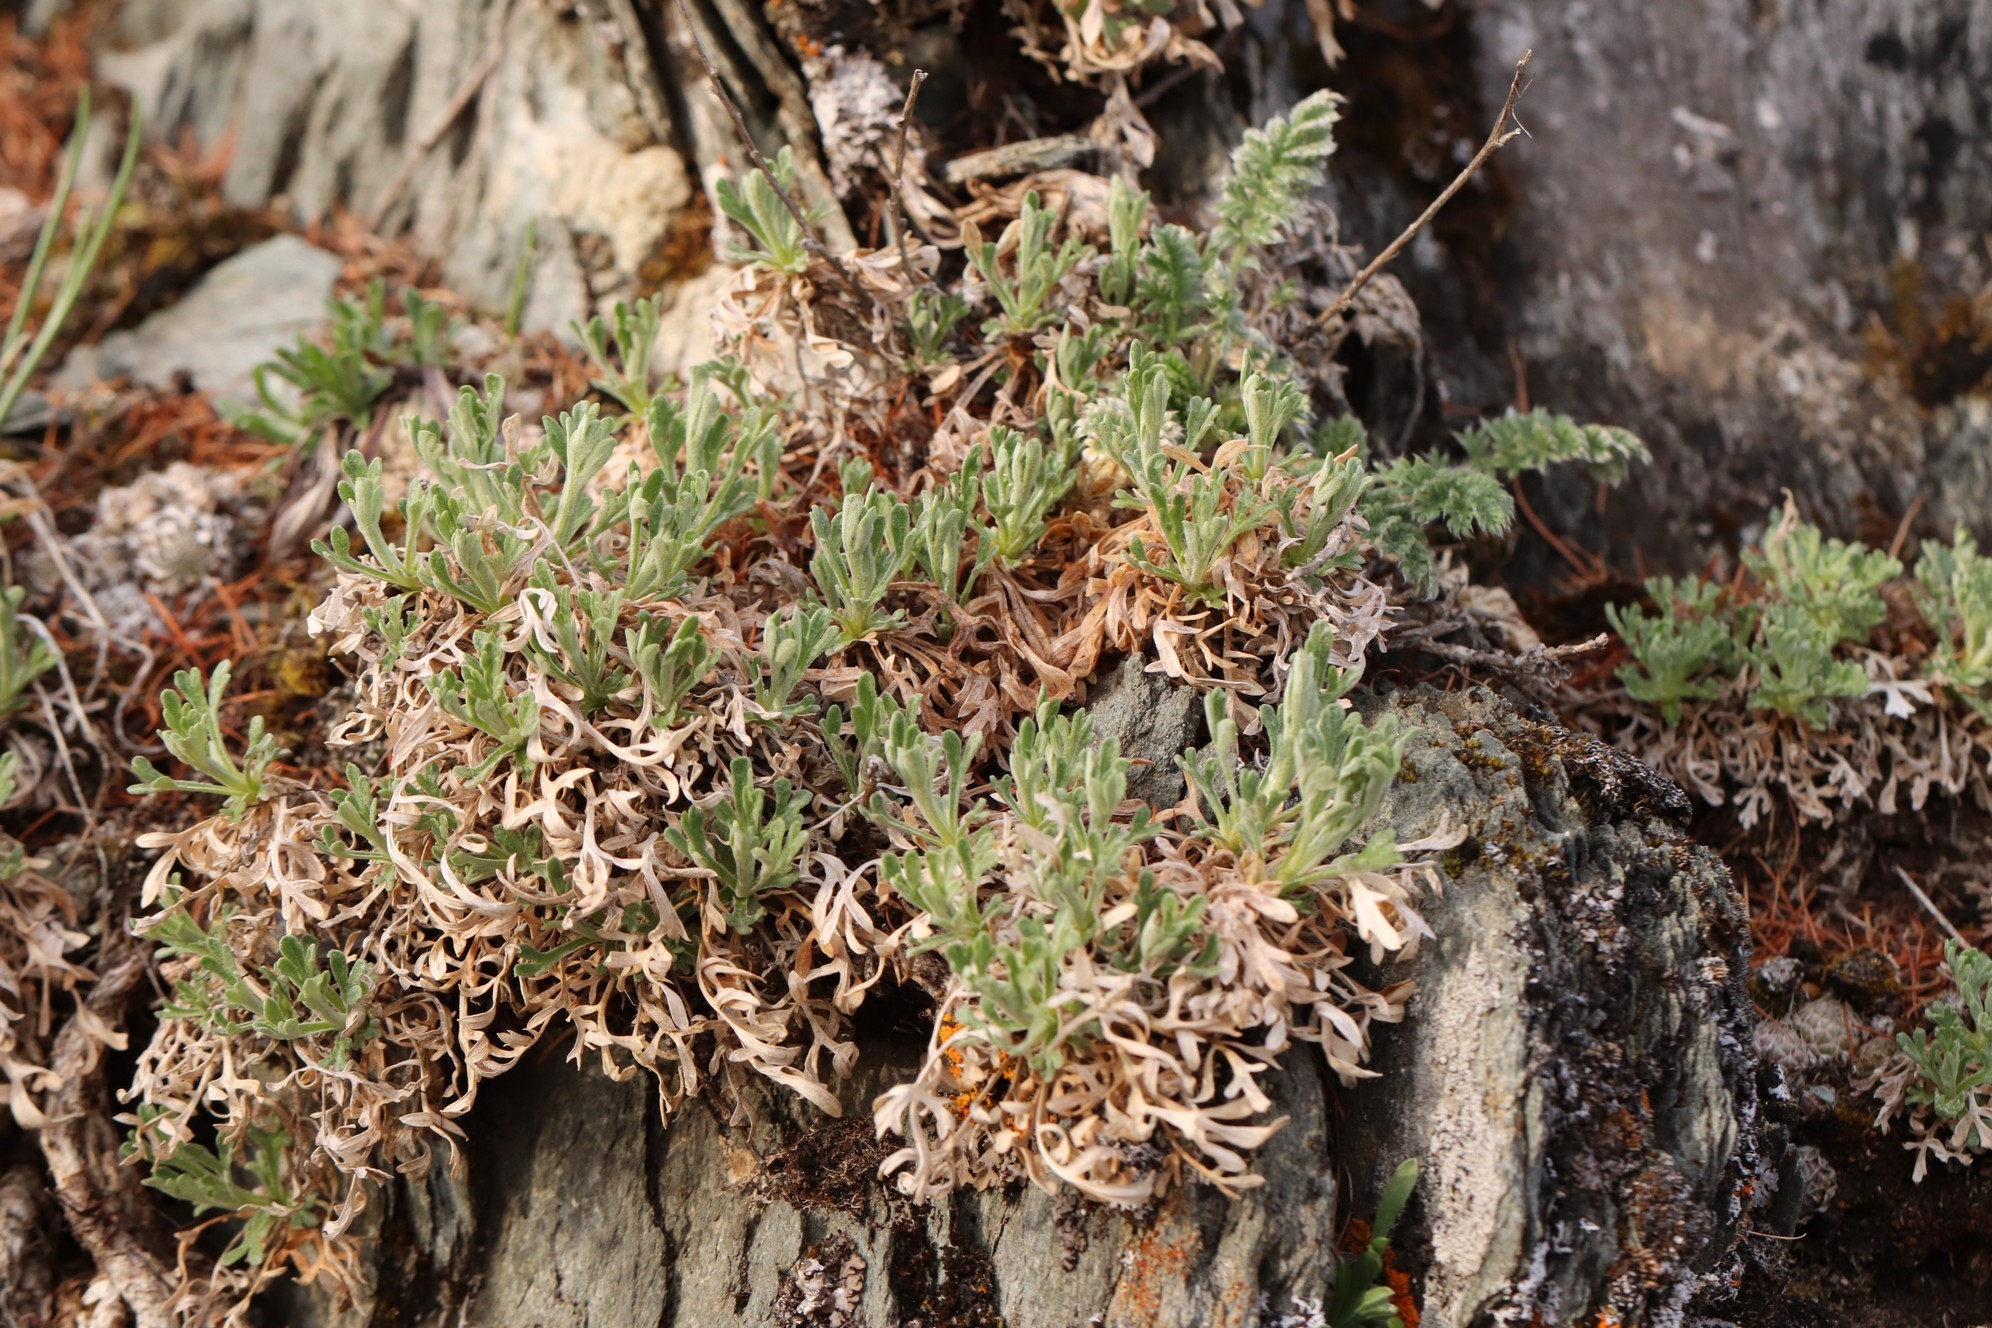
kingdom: Plantae
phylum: Tracheophyta
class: Magnoliopsida
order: Asterales
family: Asteraceae
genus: Chrysanthemum
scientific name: Chrysanthemum sinuatum
